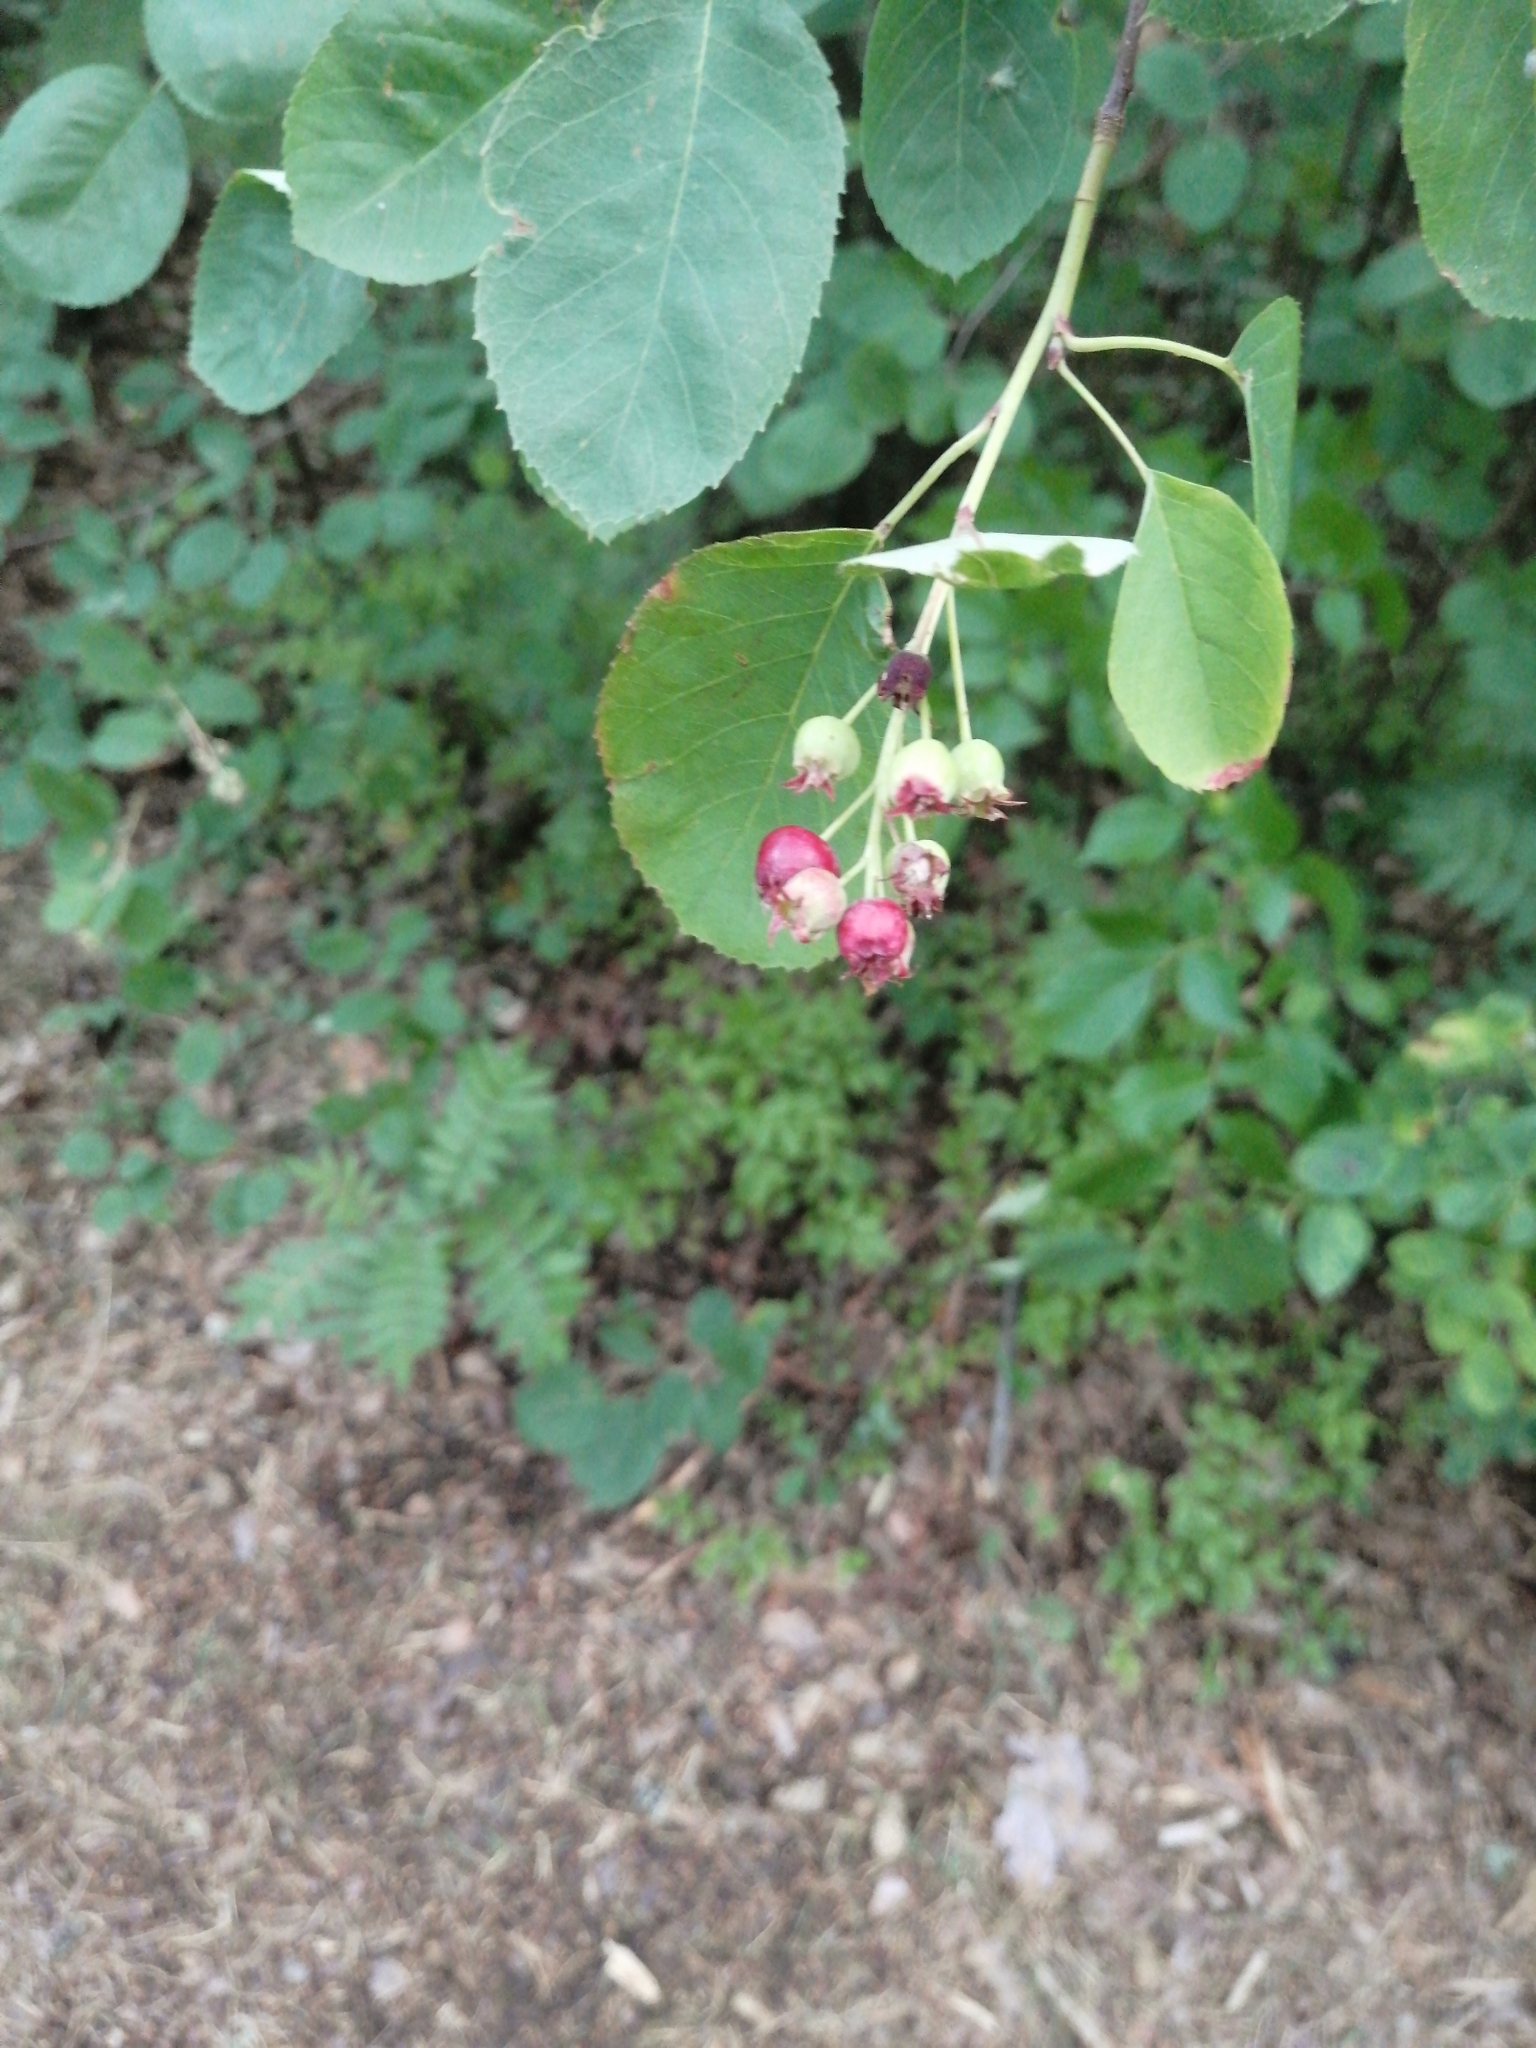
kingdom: Plantae
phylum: Tracheophyta
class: Magnoliopsida
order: Rosales
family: Rosaceae
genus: Amelanchier
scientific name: Amelanchier
